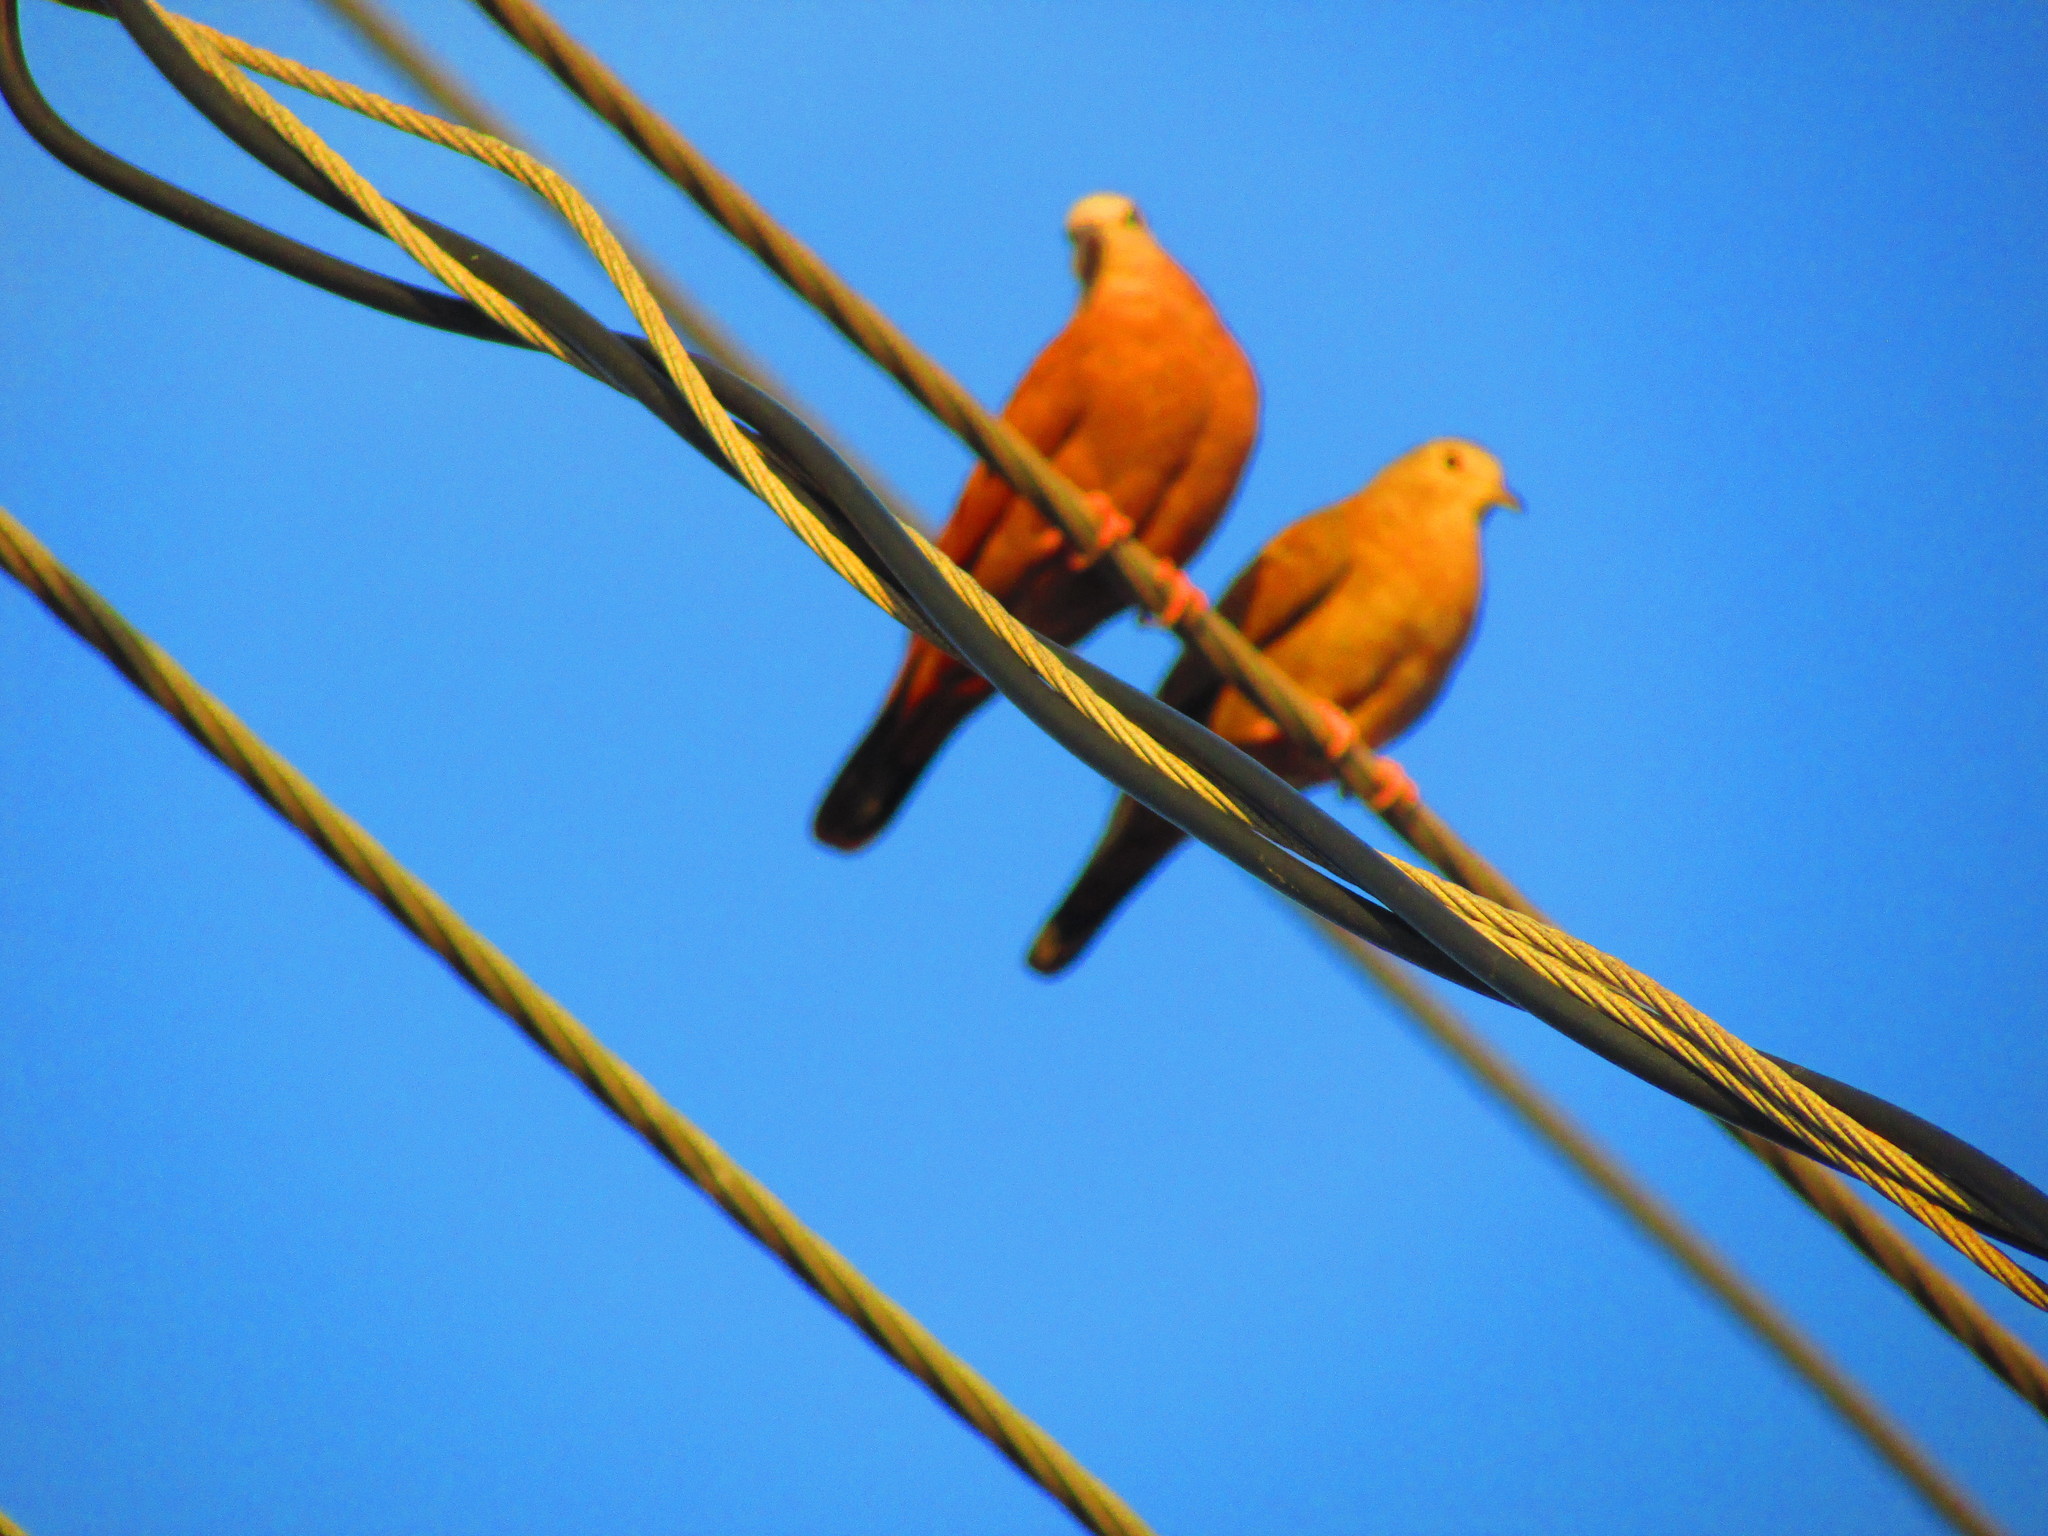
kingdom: Animalia
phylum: Chordata
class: Aves
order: Columbiformes
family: Columbidae
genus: Columbina
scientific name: Columbina talpacoti
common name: Ruddy ground dove
